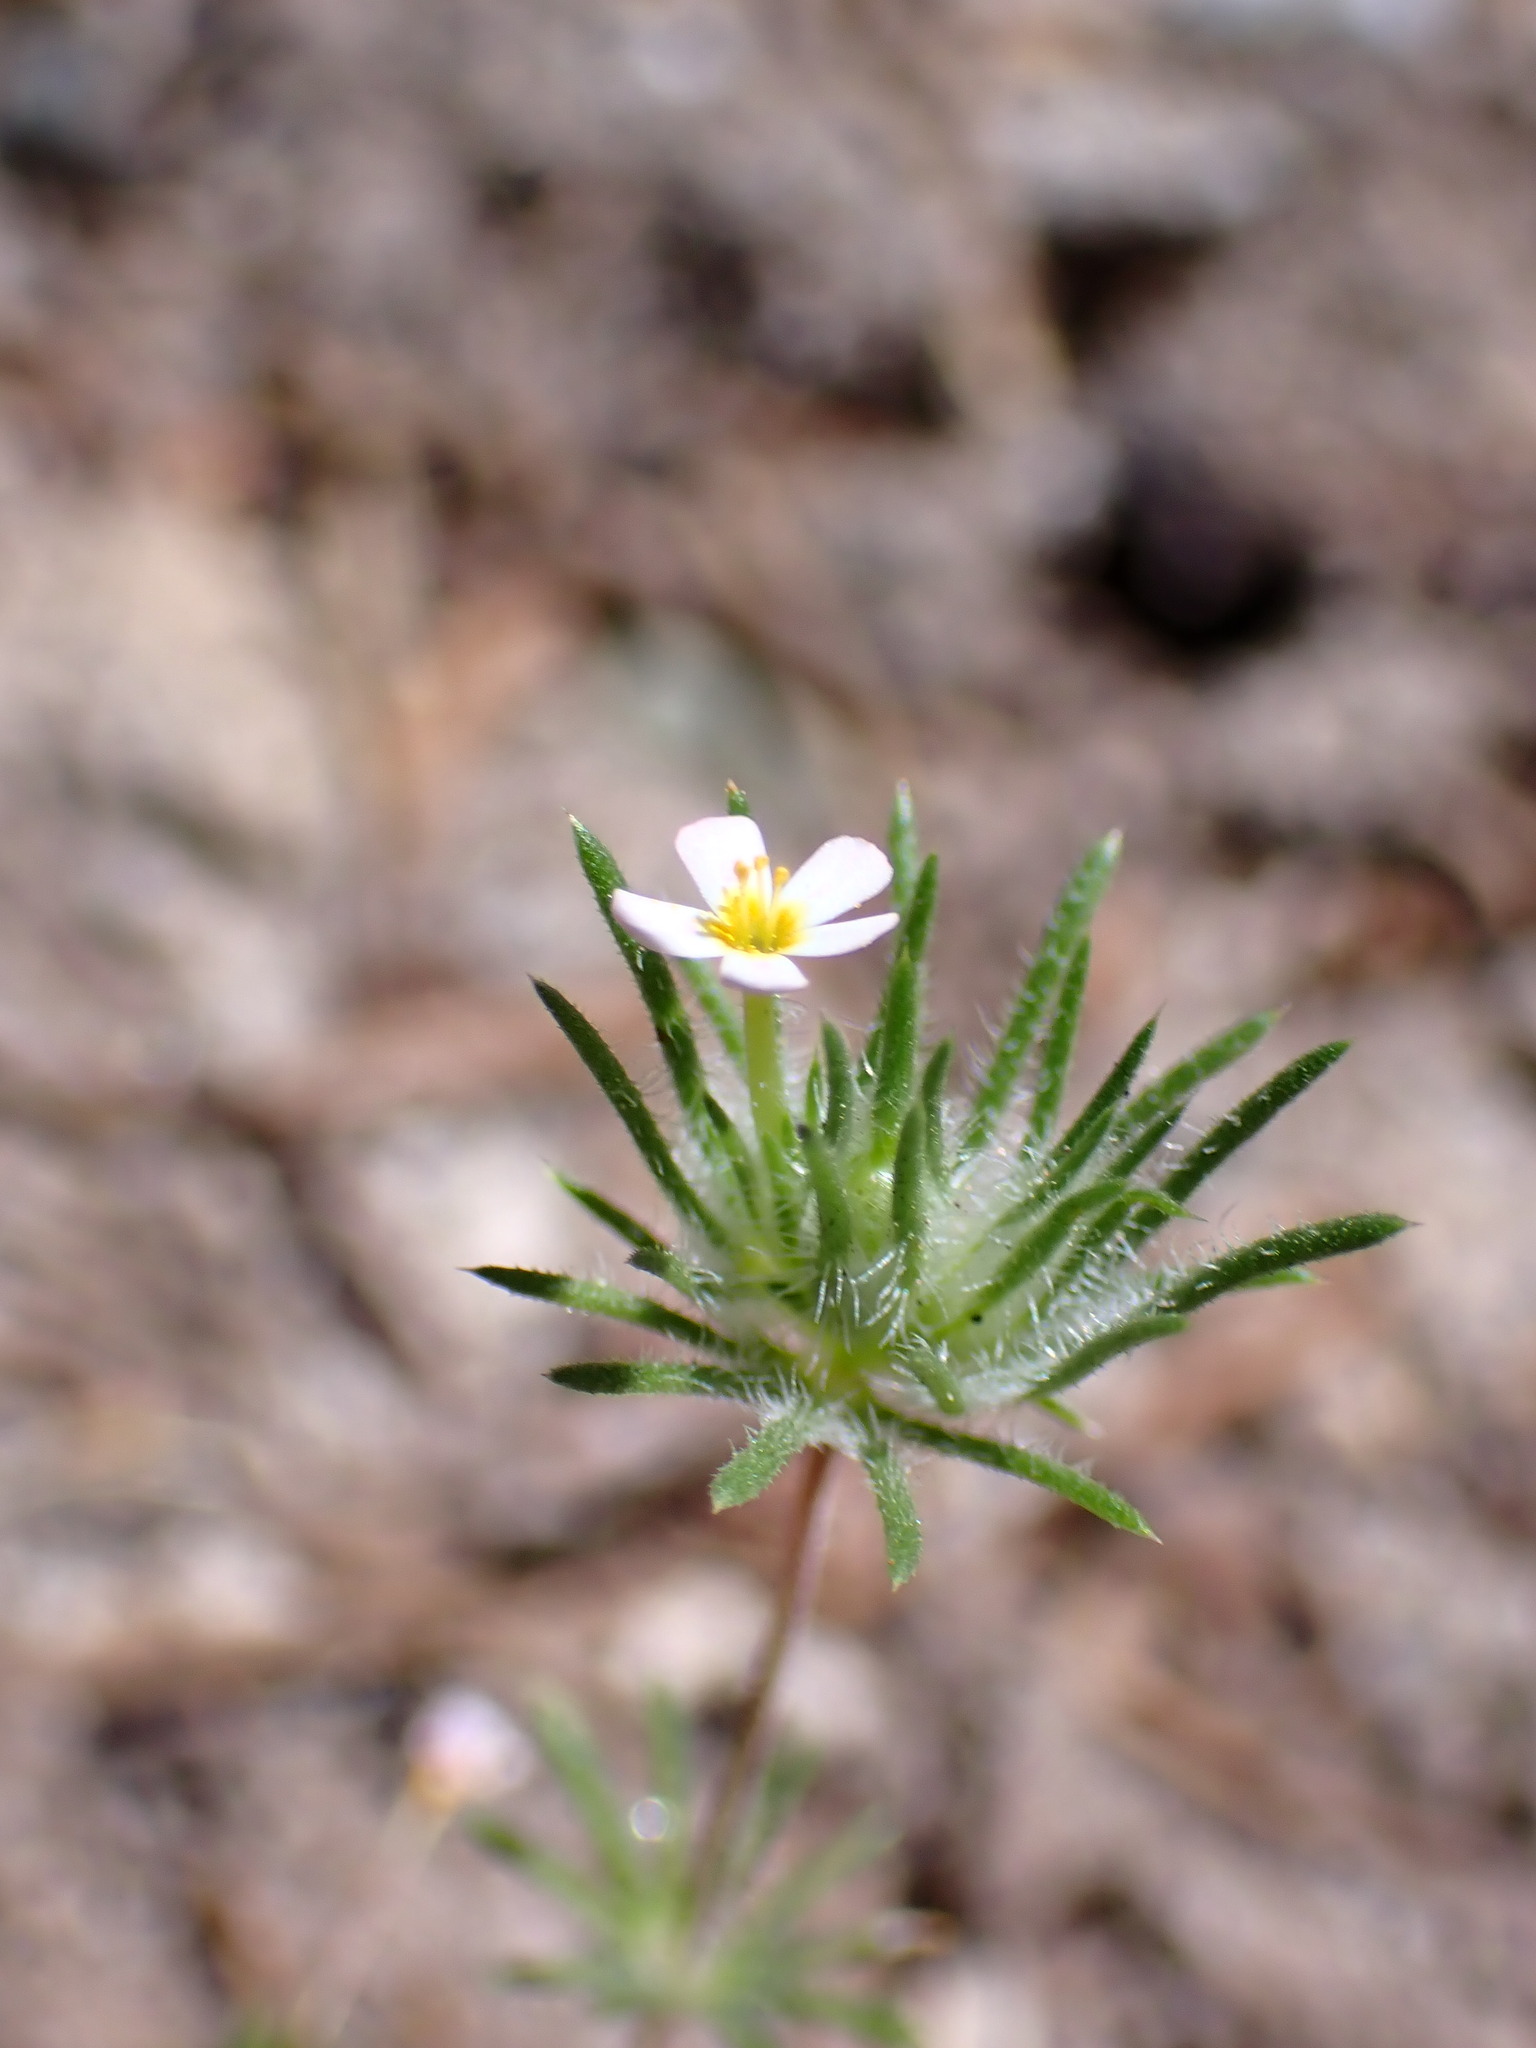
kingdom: Plantae
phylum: Tracheophyta
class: Magnoliopsida
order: Ericales
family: Polemoniaceae
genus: Leptosiphon
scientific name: Leptosiphon ciliatus
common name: Whiskerbrush
